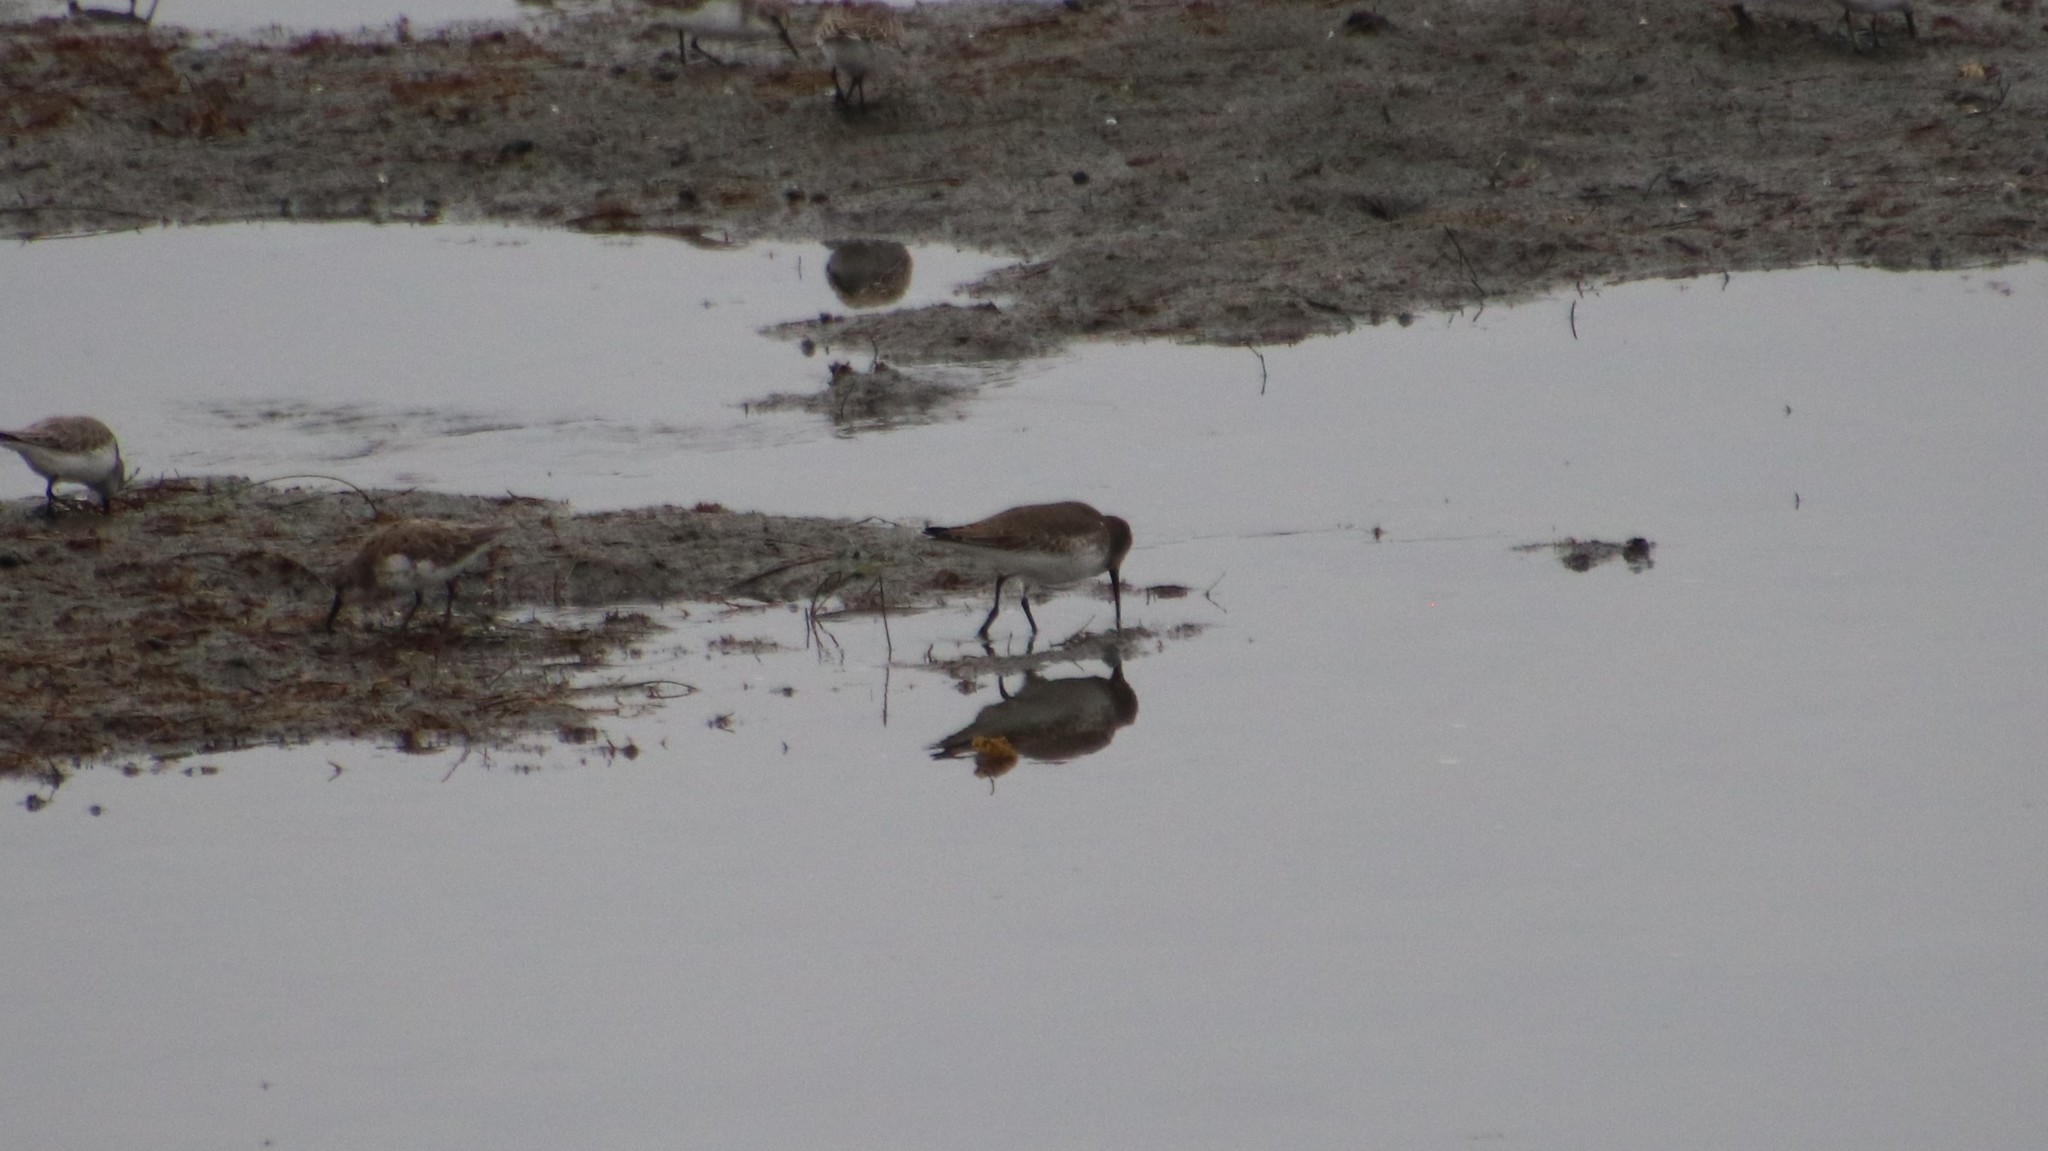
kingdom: Animalia
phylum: Chordata
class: Aves
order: Charadriiformes
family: Scolopacidae
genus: Calidris
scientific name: Calidris alpina
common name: Dunlin
